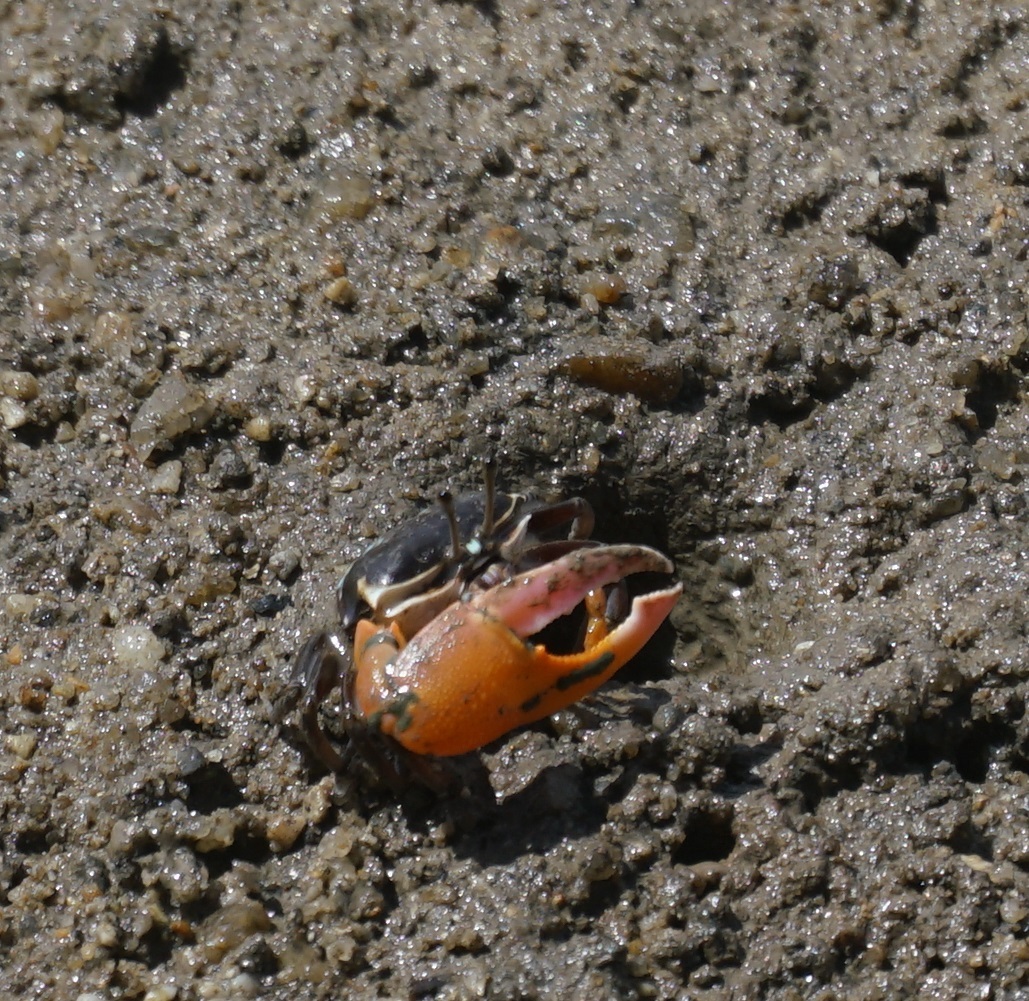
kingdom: Animalia
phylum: Arthropoda
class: Malacostraca
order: Decapoda
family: Ocypodidae
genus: Gelasimus
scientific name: Gelasimus vomeris
